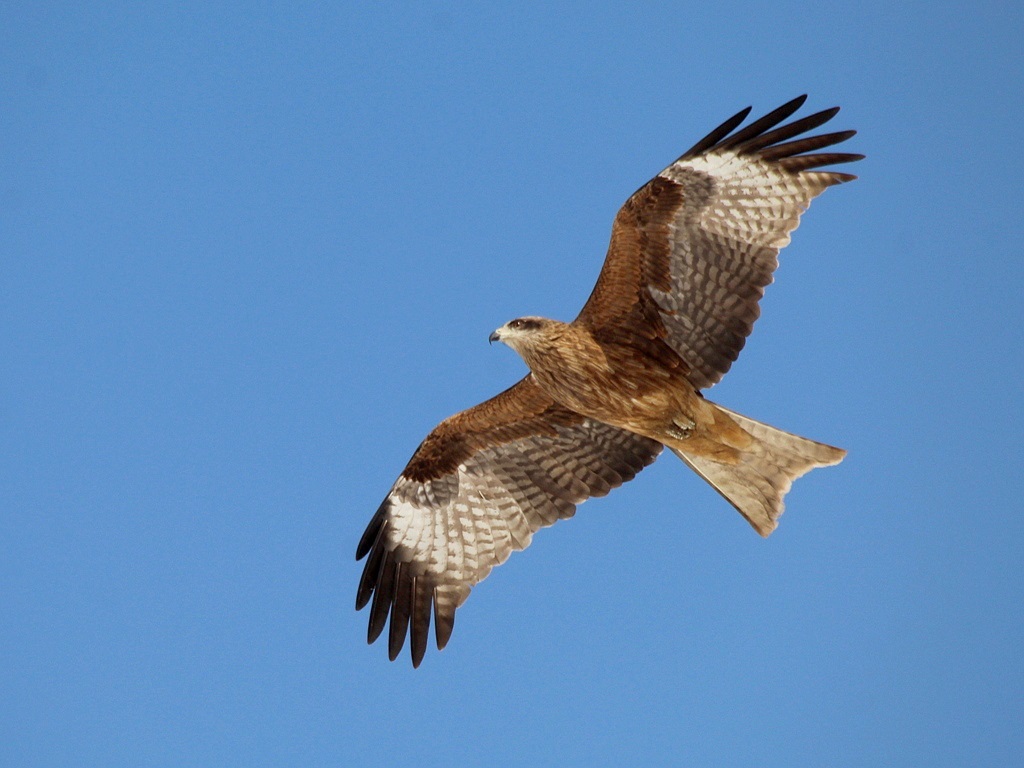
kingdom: Animalia
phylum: Chordata
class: Aves
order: Accipitriformes
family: Accipitridae
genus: Milvus
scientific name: Milvus migrans
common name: Black kite
